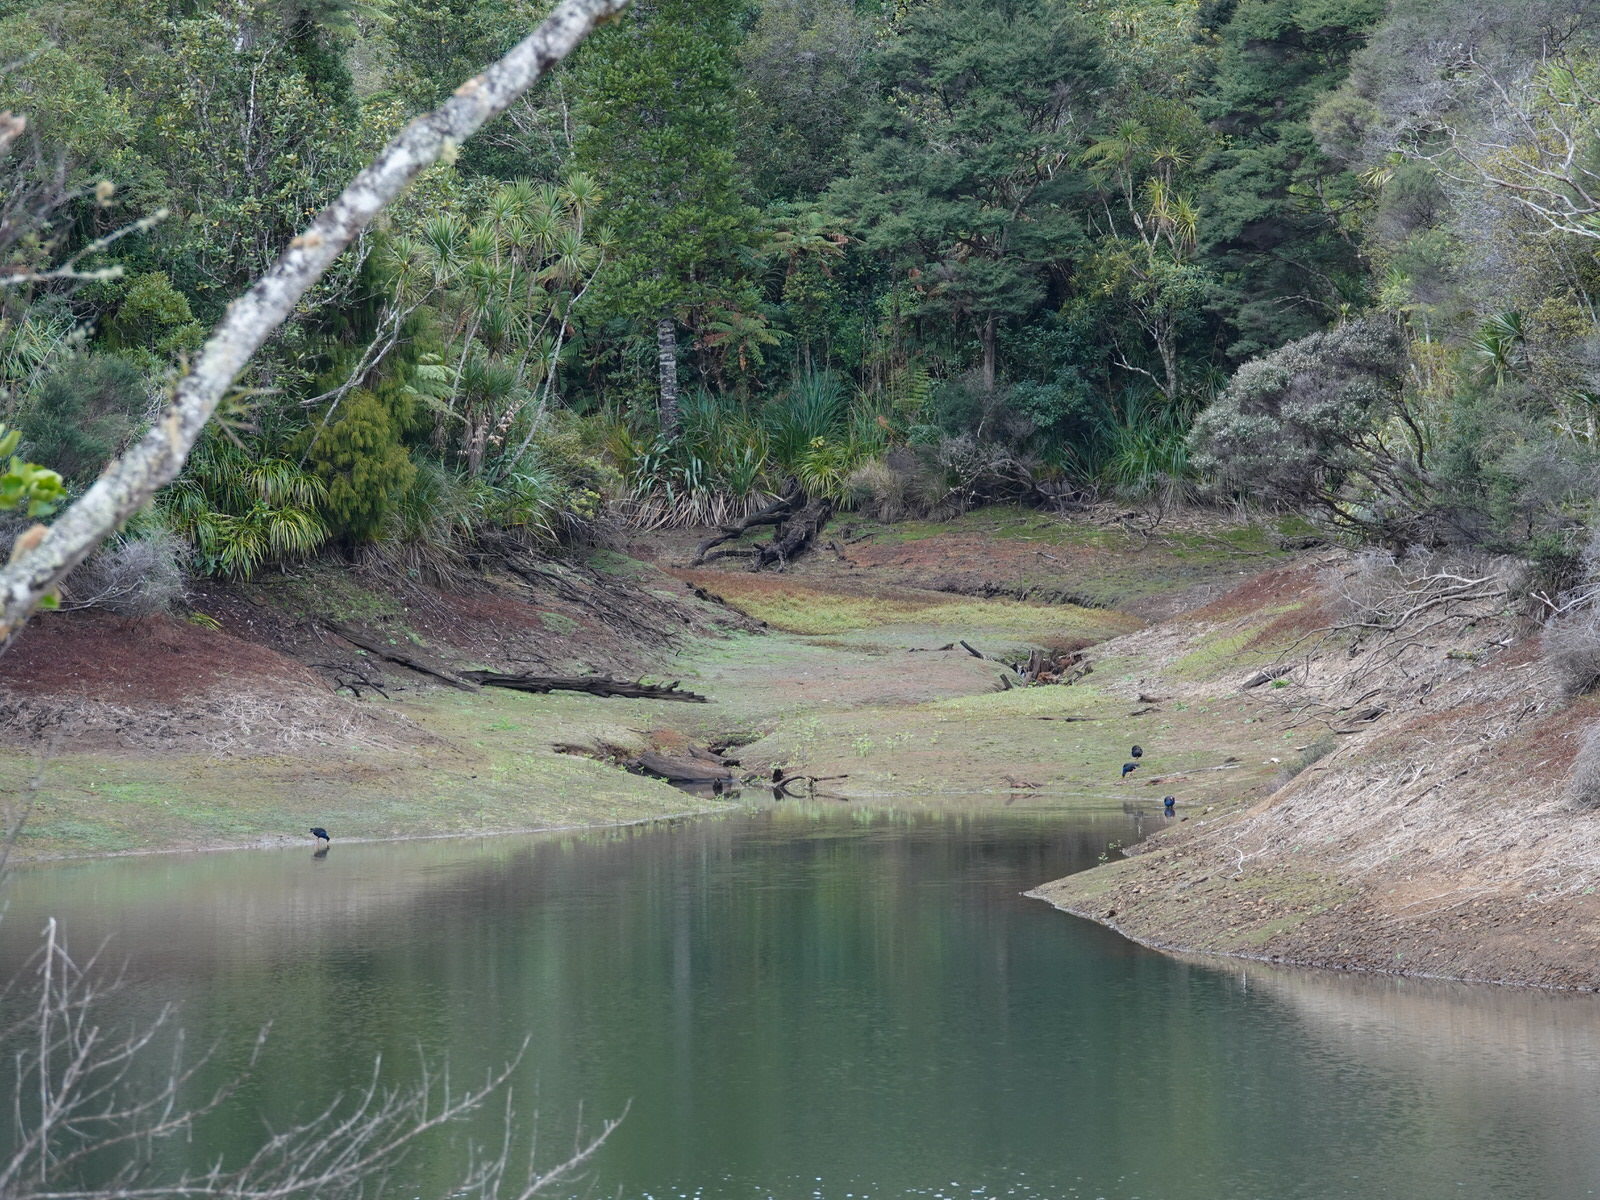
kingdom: Animalia
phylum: Chordata
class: Aves
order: Gruiformes
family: Rallidae
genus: Porphyrio
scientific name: Porphyrio melanotus
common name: Australasian swamphen
